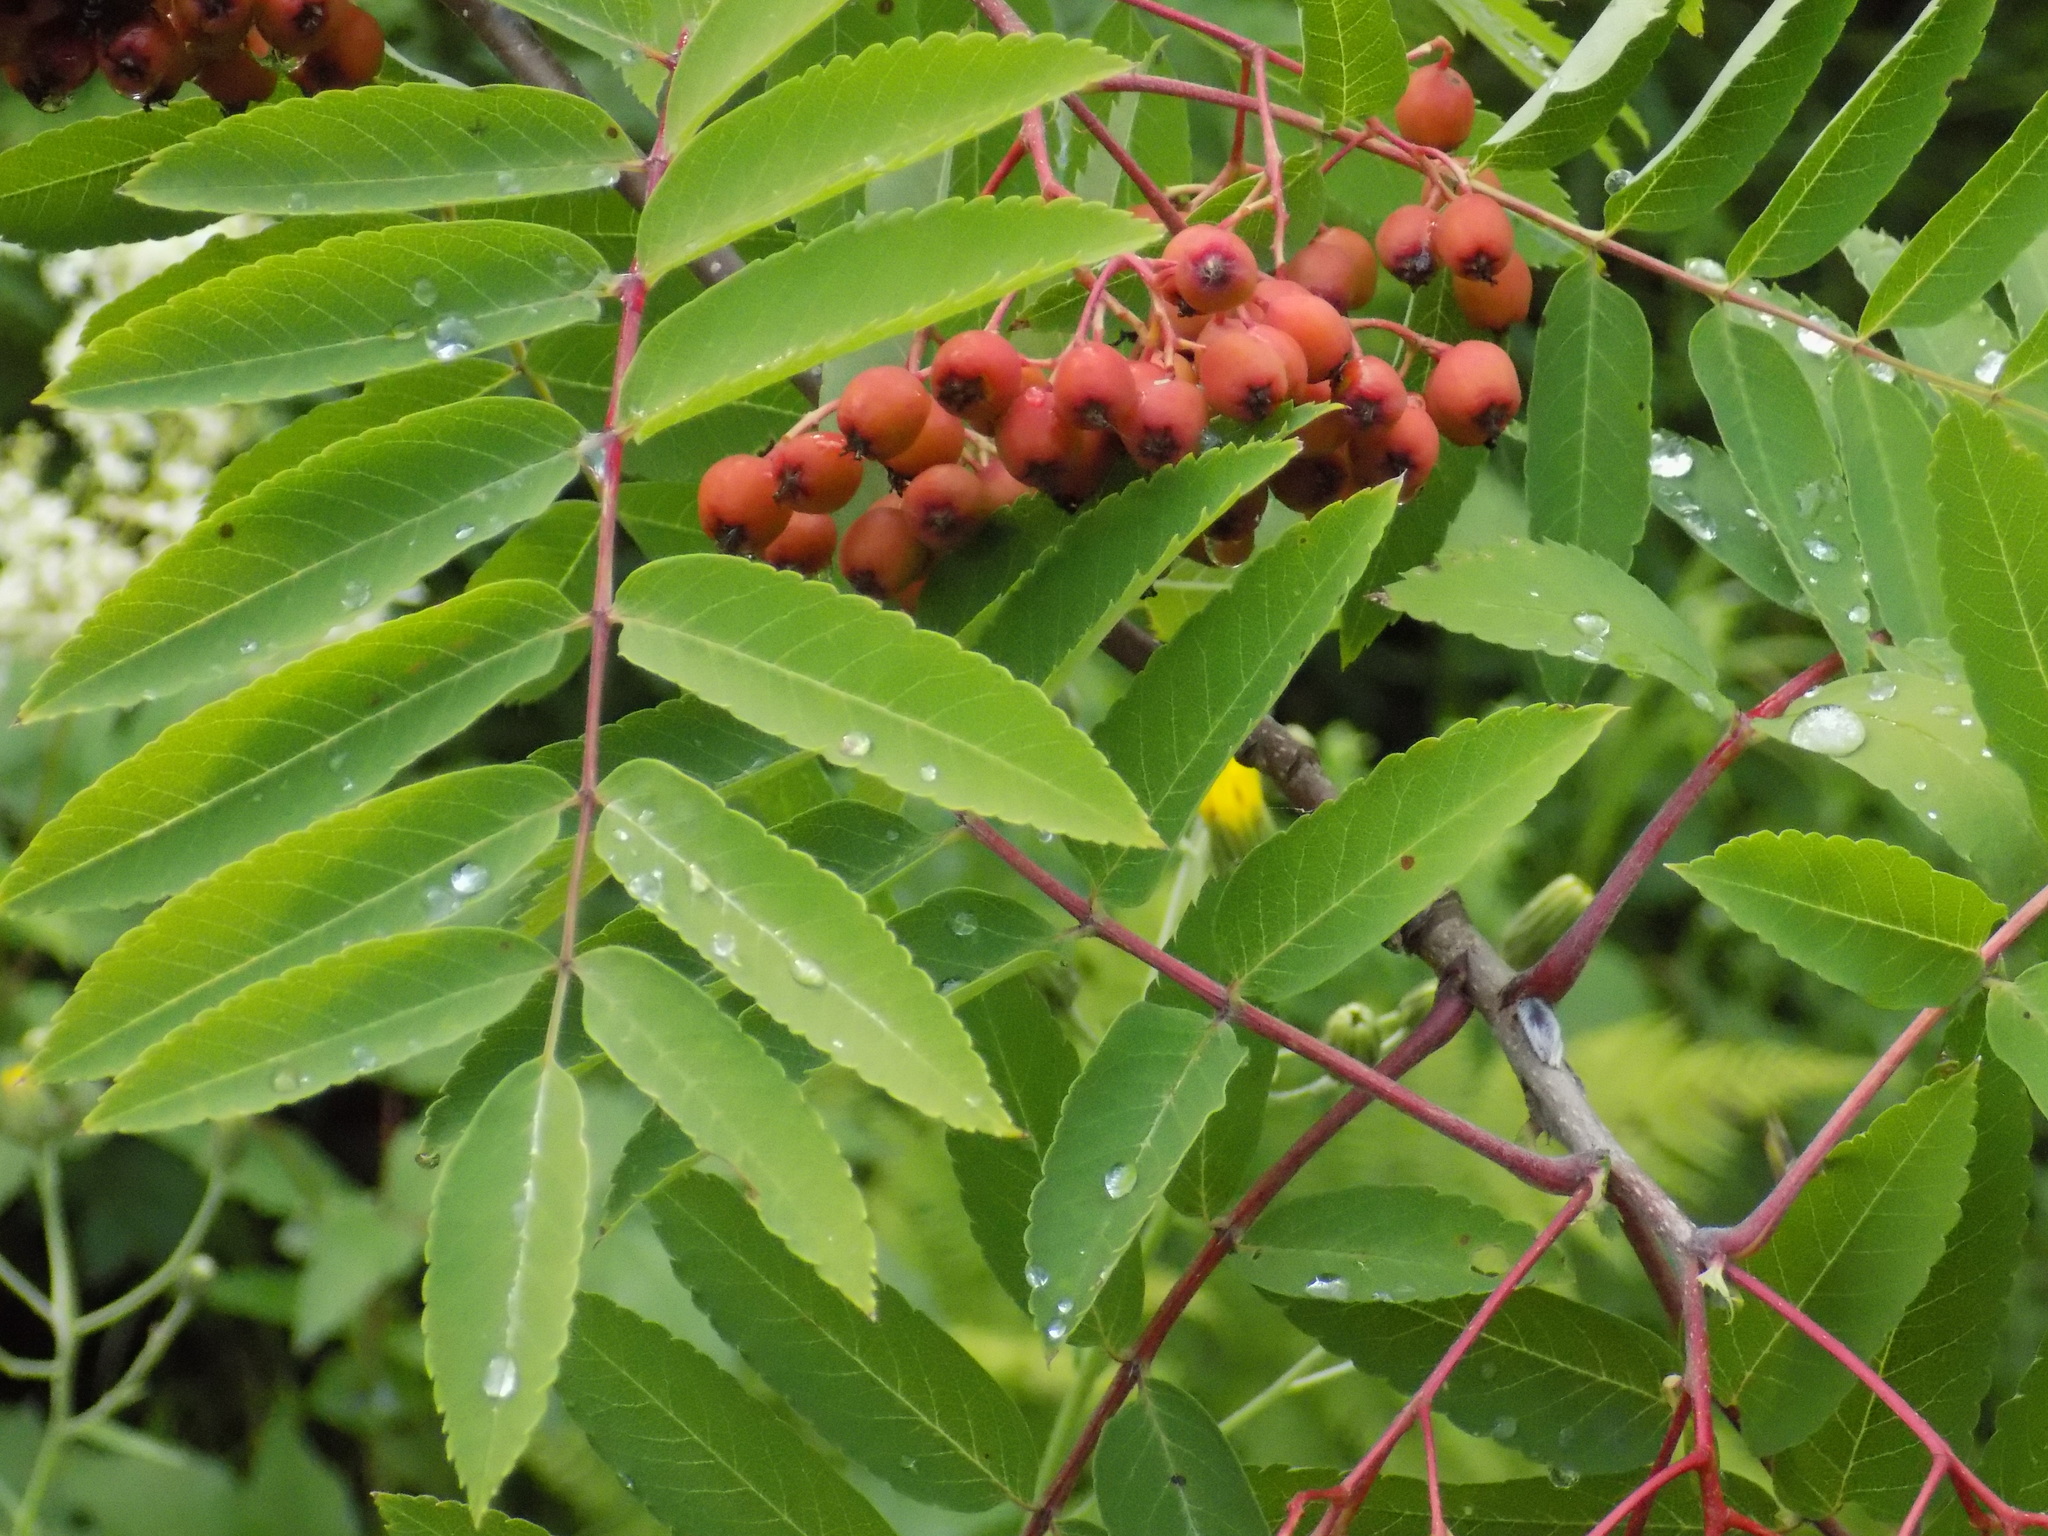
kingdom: Plantae
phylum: Tracheophyta
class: Magnoliopsida
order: Rosales
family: Rosaceae
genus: Sorbus
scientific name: Sorbus aucuparia
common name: Rowan
